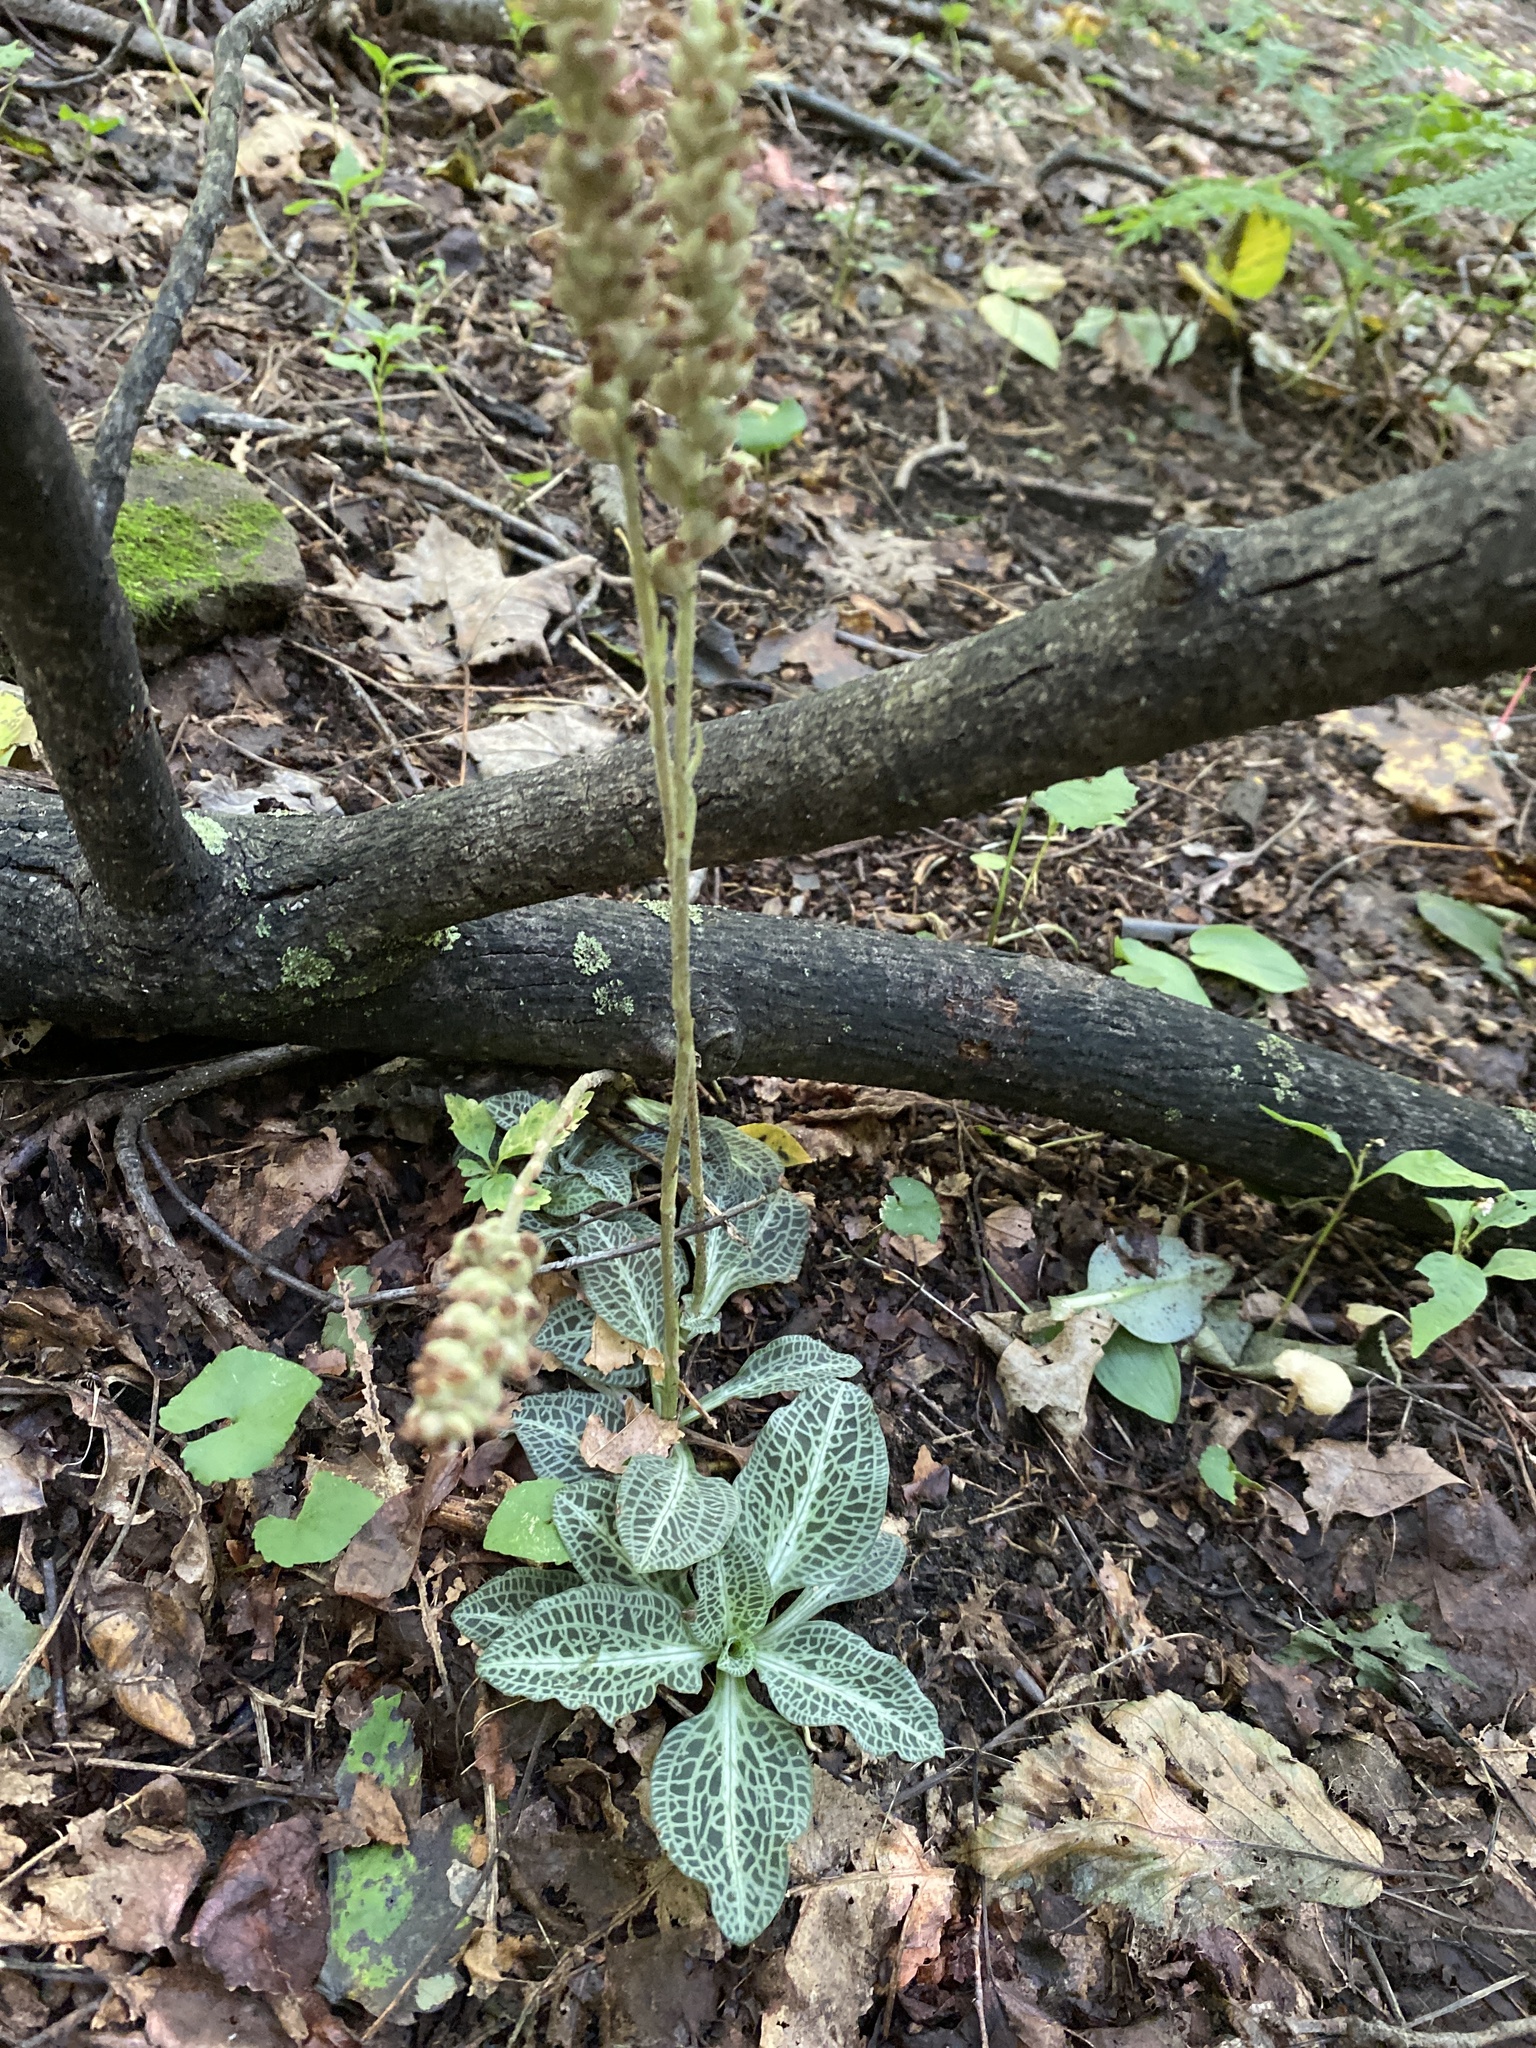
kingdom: Plantae
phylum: Tracheophyta
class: Liliopsida
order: Asparagales
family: Orchidaceae
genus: Goodyera
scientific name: Goodyera pubescens
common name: Downy rattlesnake-plantain
